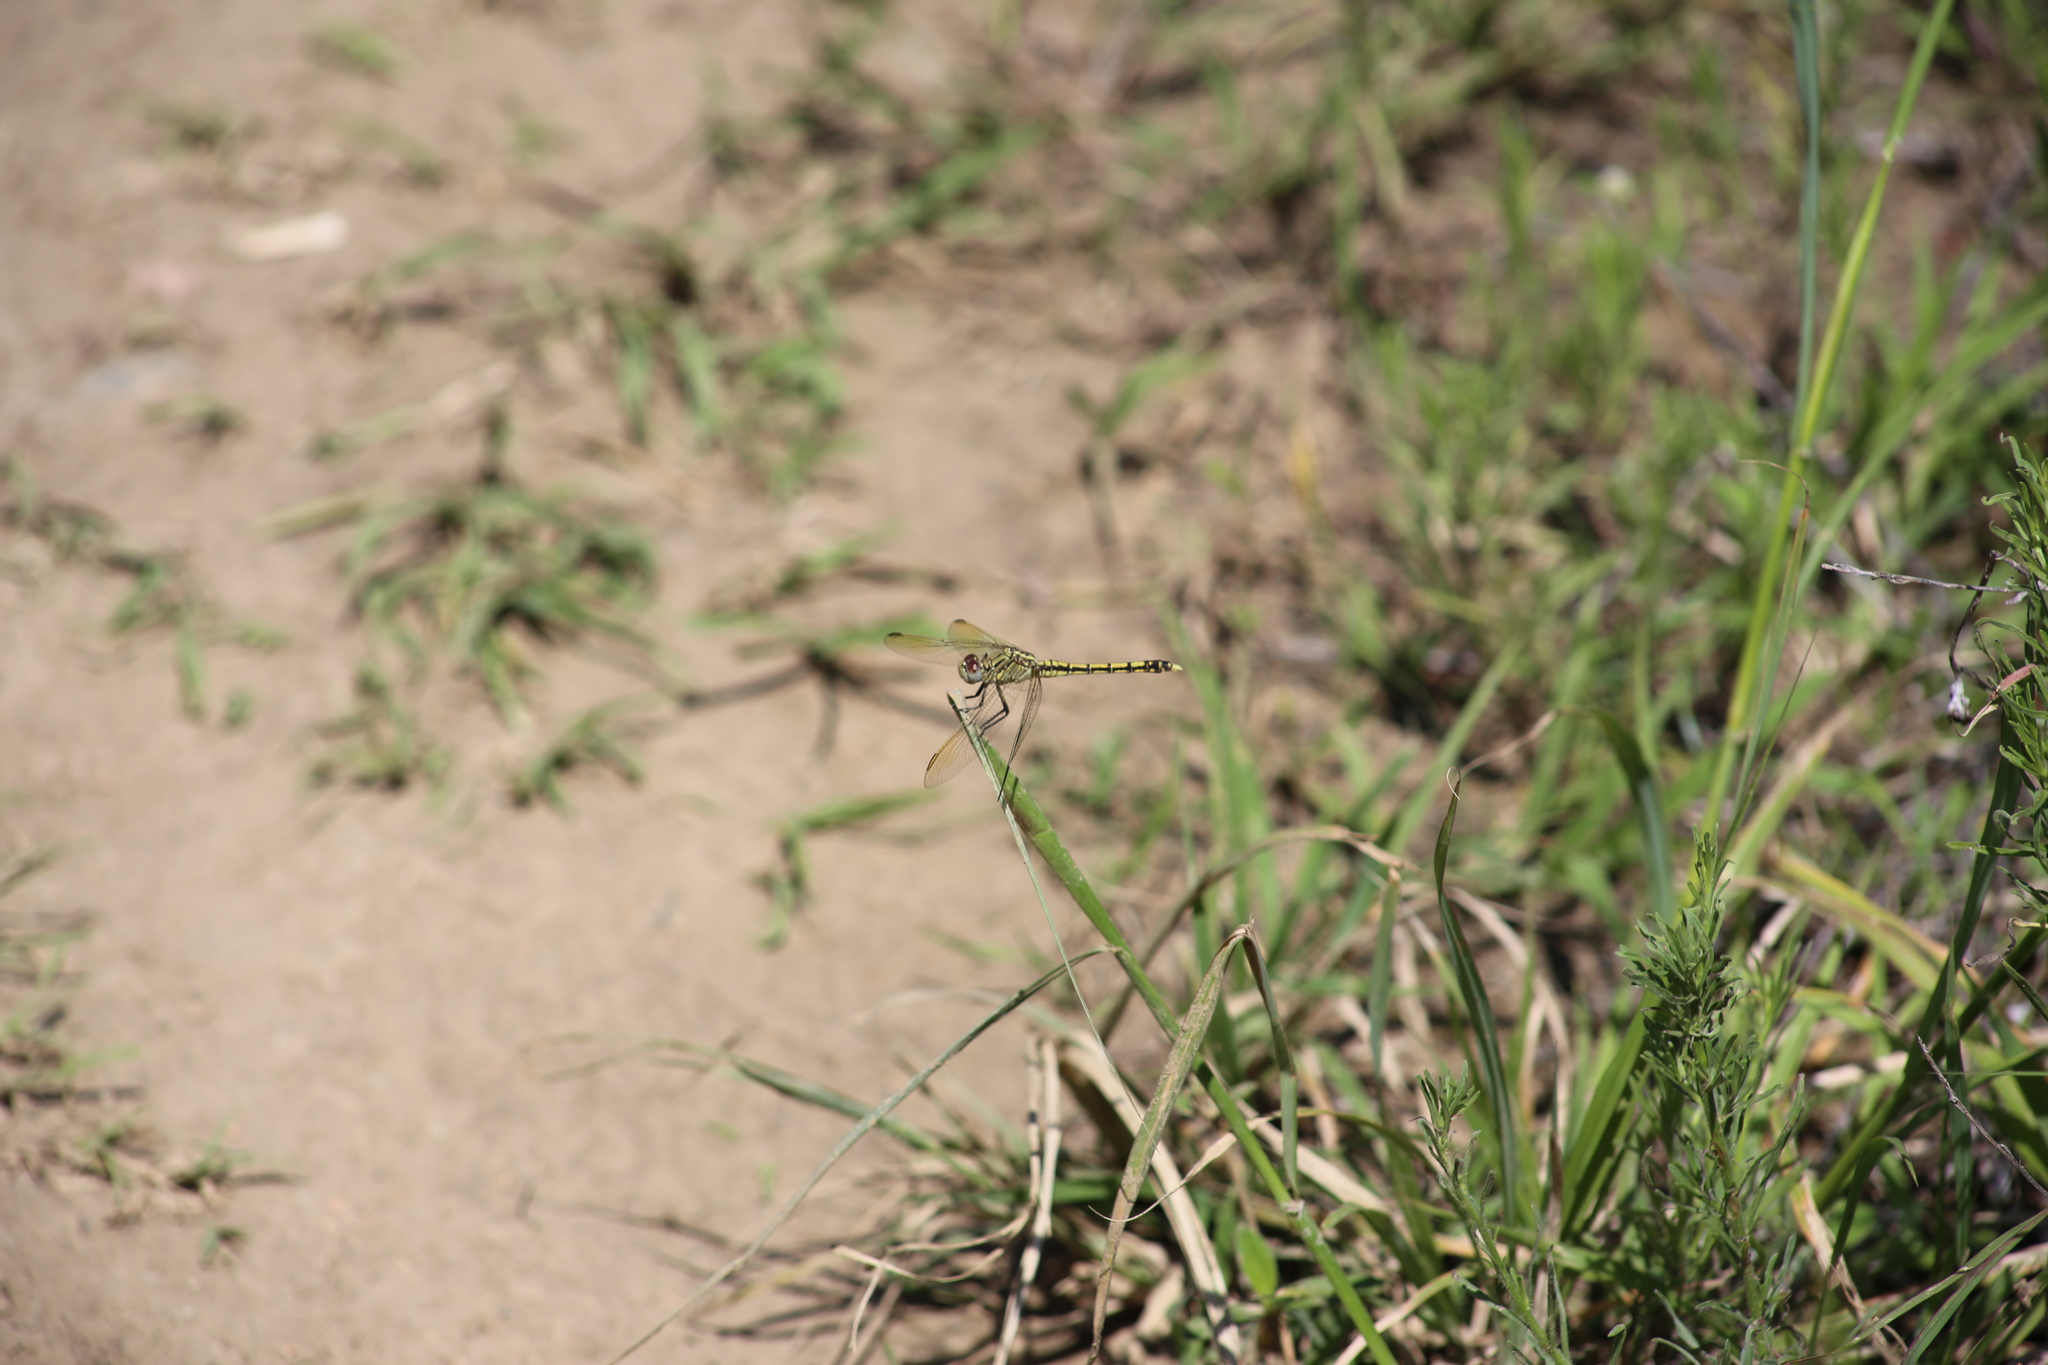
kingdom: Animalia
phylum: Arthropoda
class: Insecta
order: Odonata
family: Libellulidae
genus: Orthetrum
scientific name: Orthetrum caledonicum
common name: Blue skimmer
